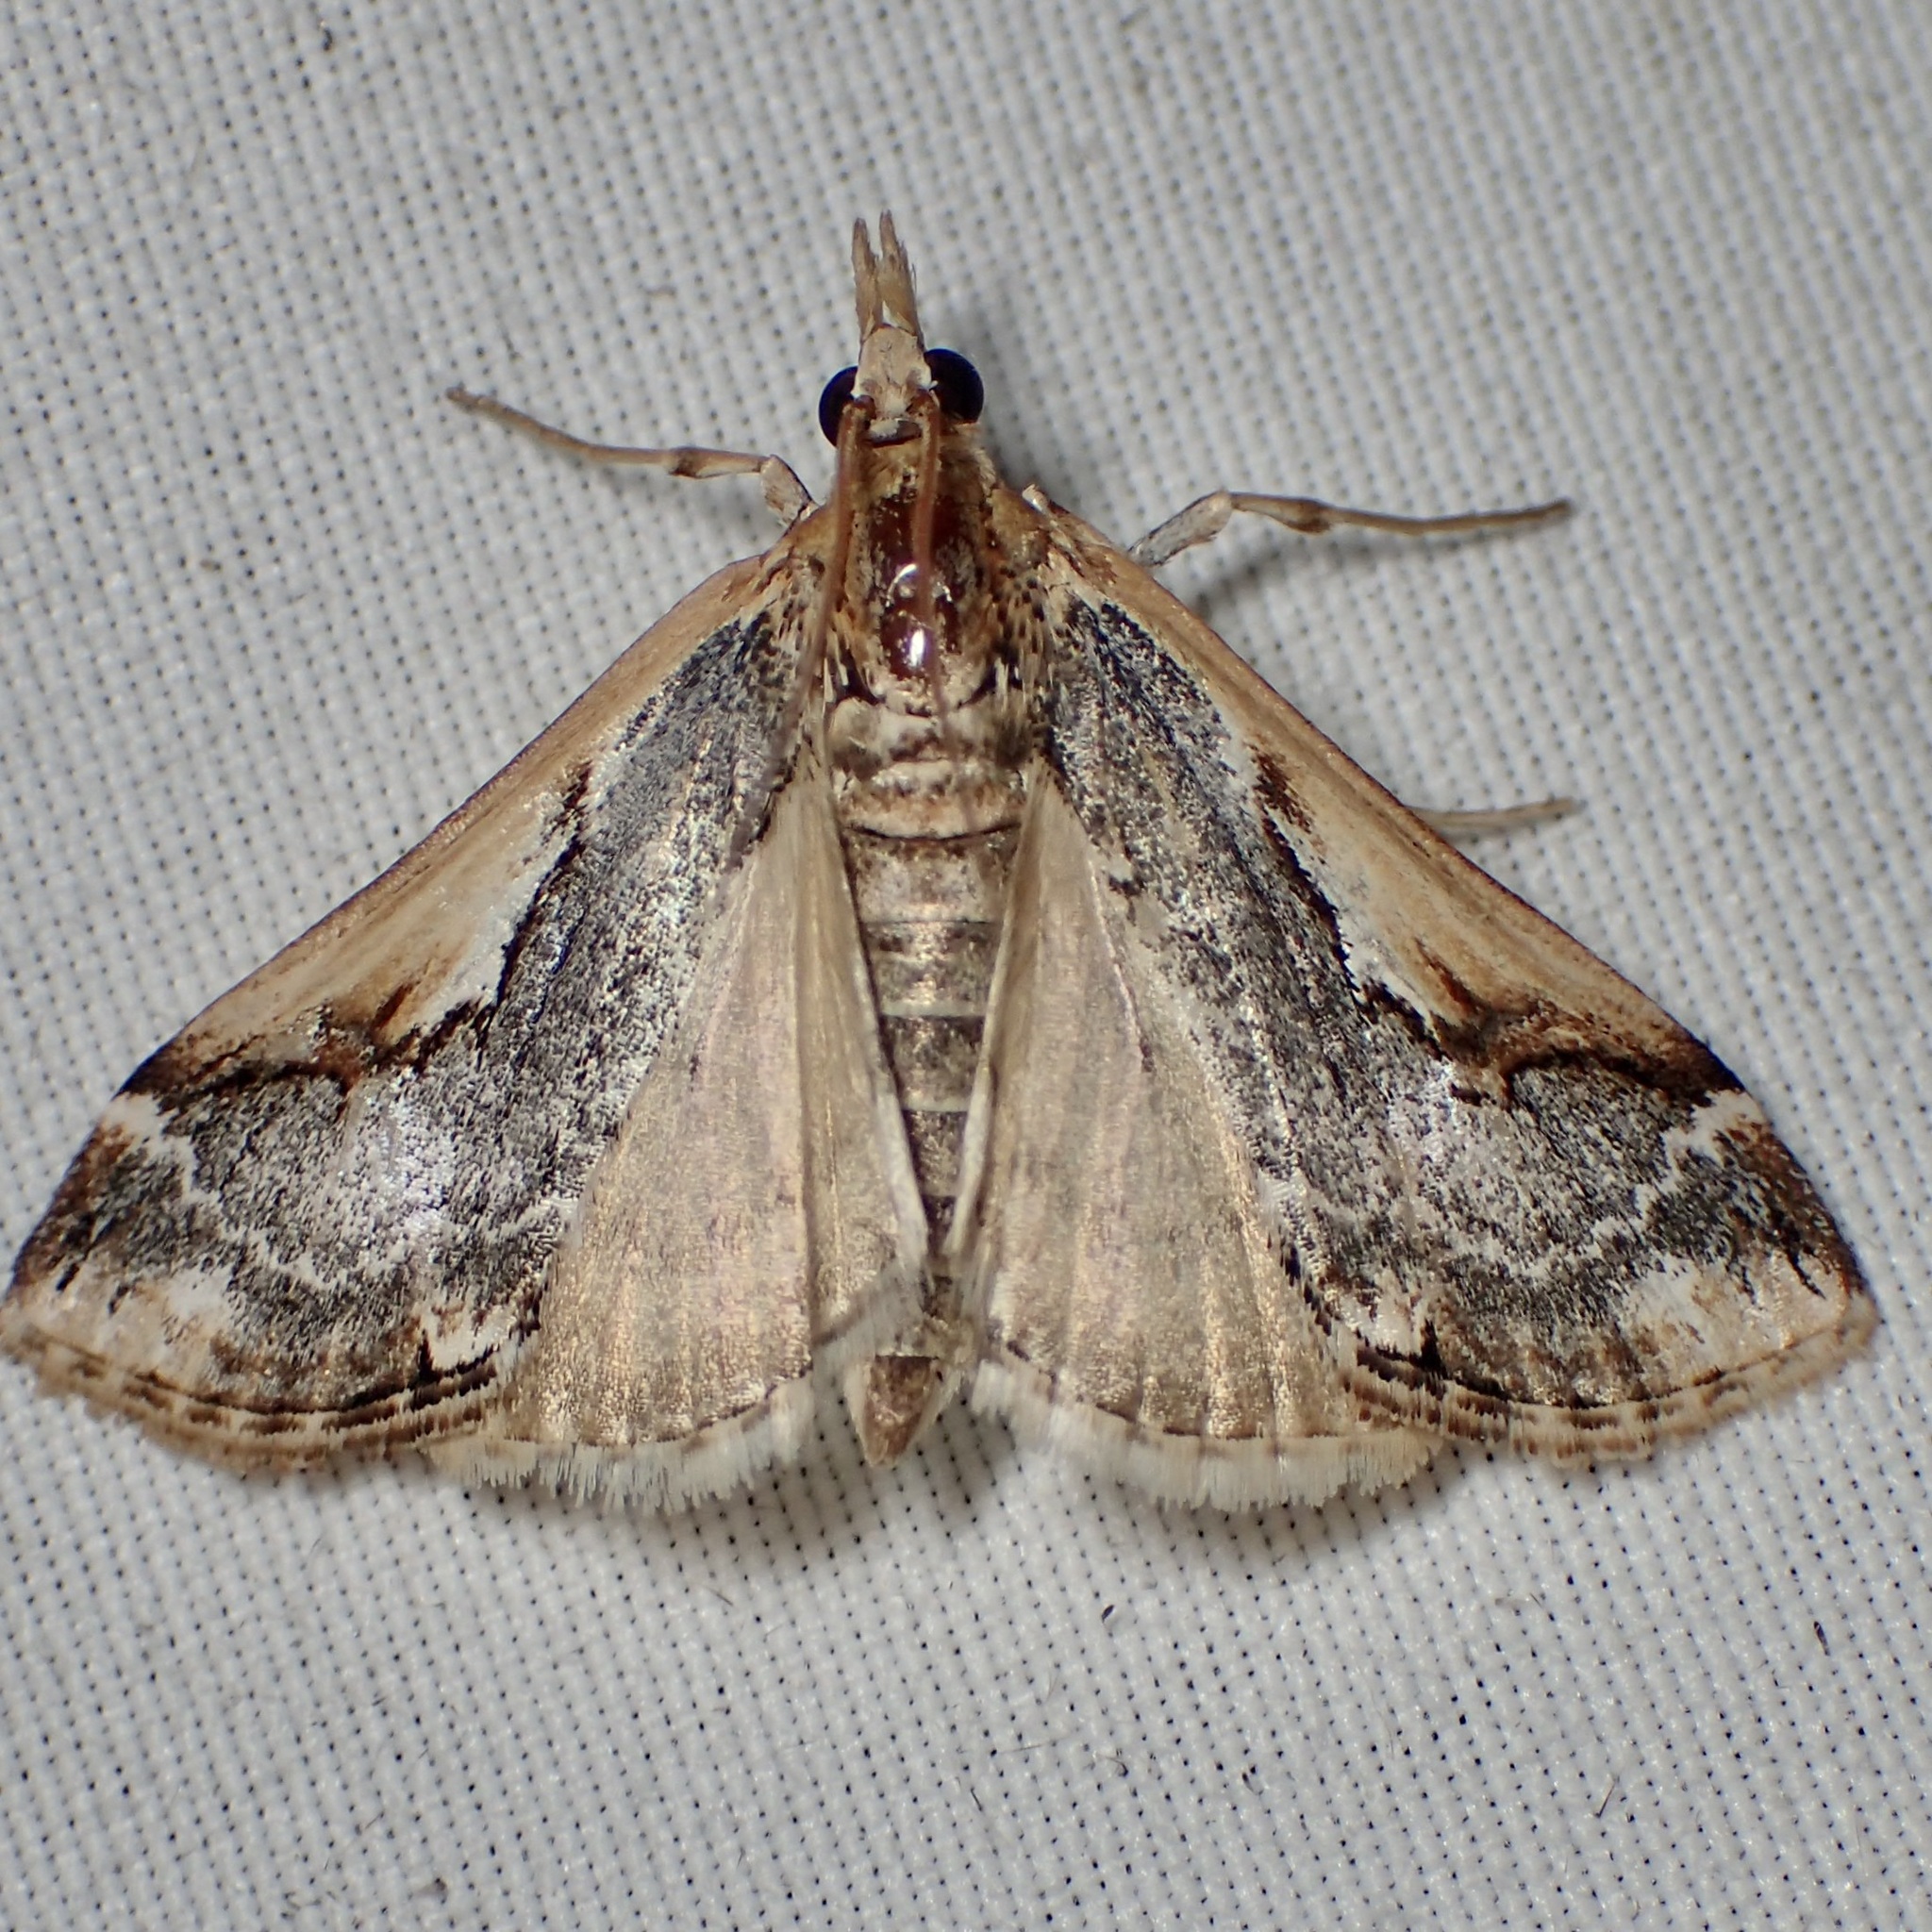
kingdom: Animalia
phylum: Arthropoda
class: Insecta
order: Lepidoptera
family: Crambidae
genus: Loxostege
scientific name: Loxostege albiceralis
